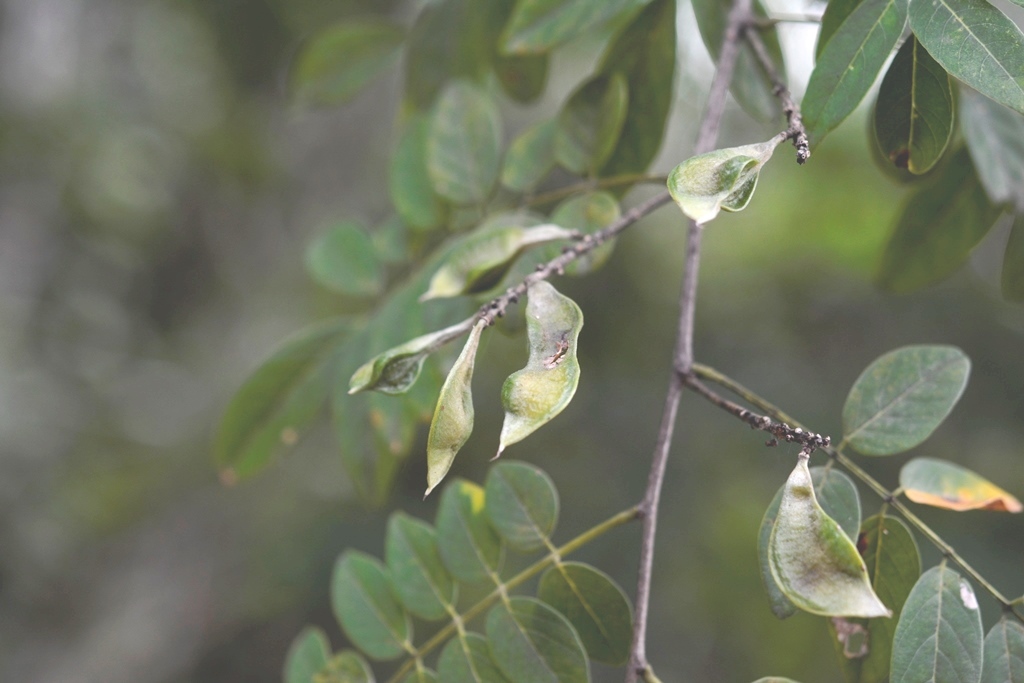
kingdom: Plantae
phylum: Tracheophyta
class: Magnoliopsida
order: Fabales
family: Fabaceae
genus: Lonchocarpus
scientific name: Lonchocarpus lanceolatus
